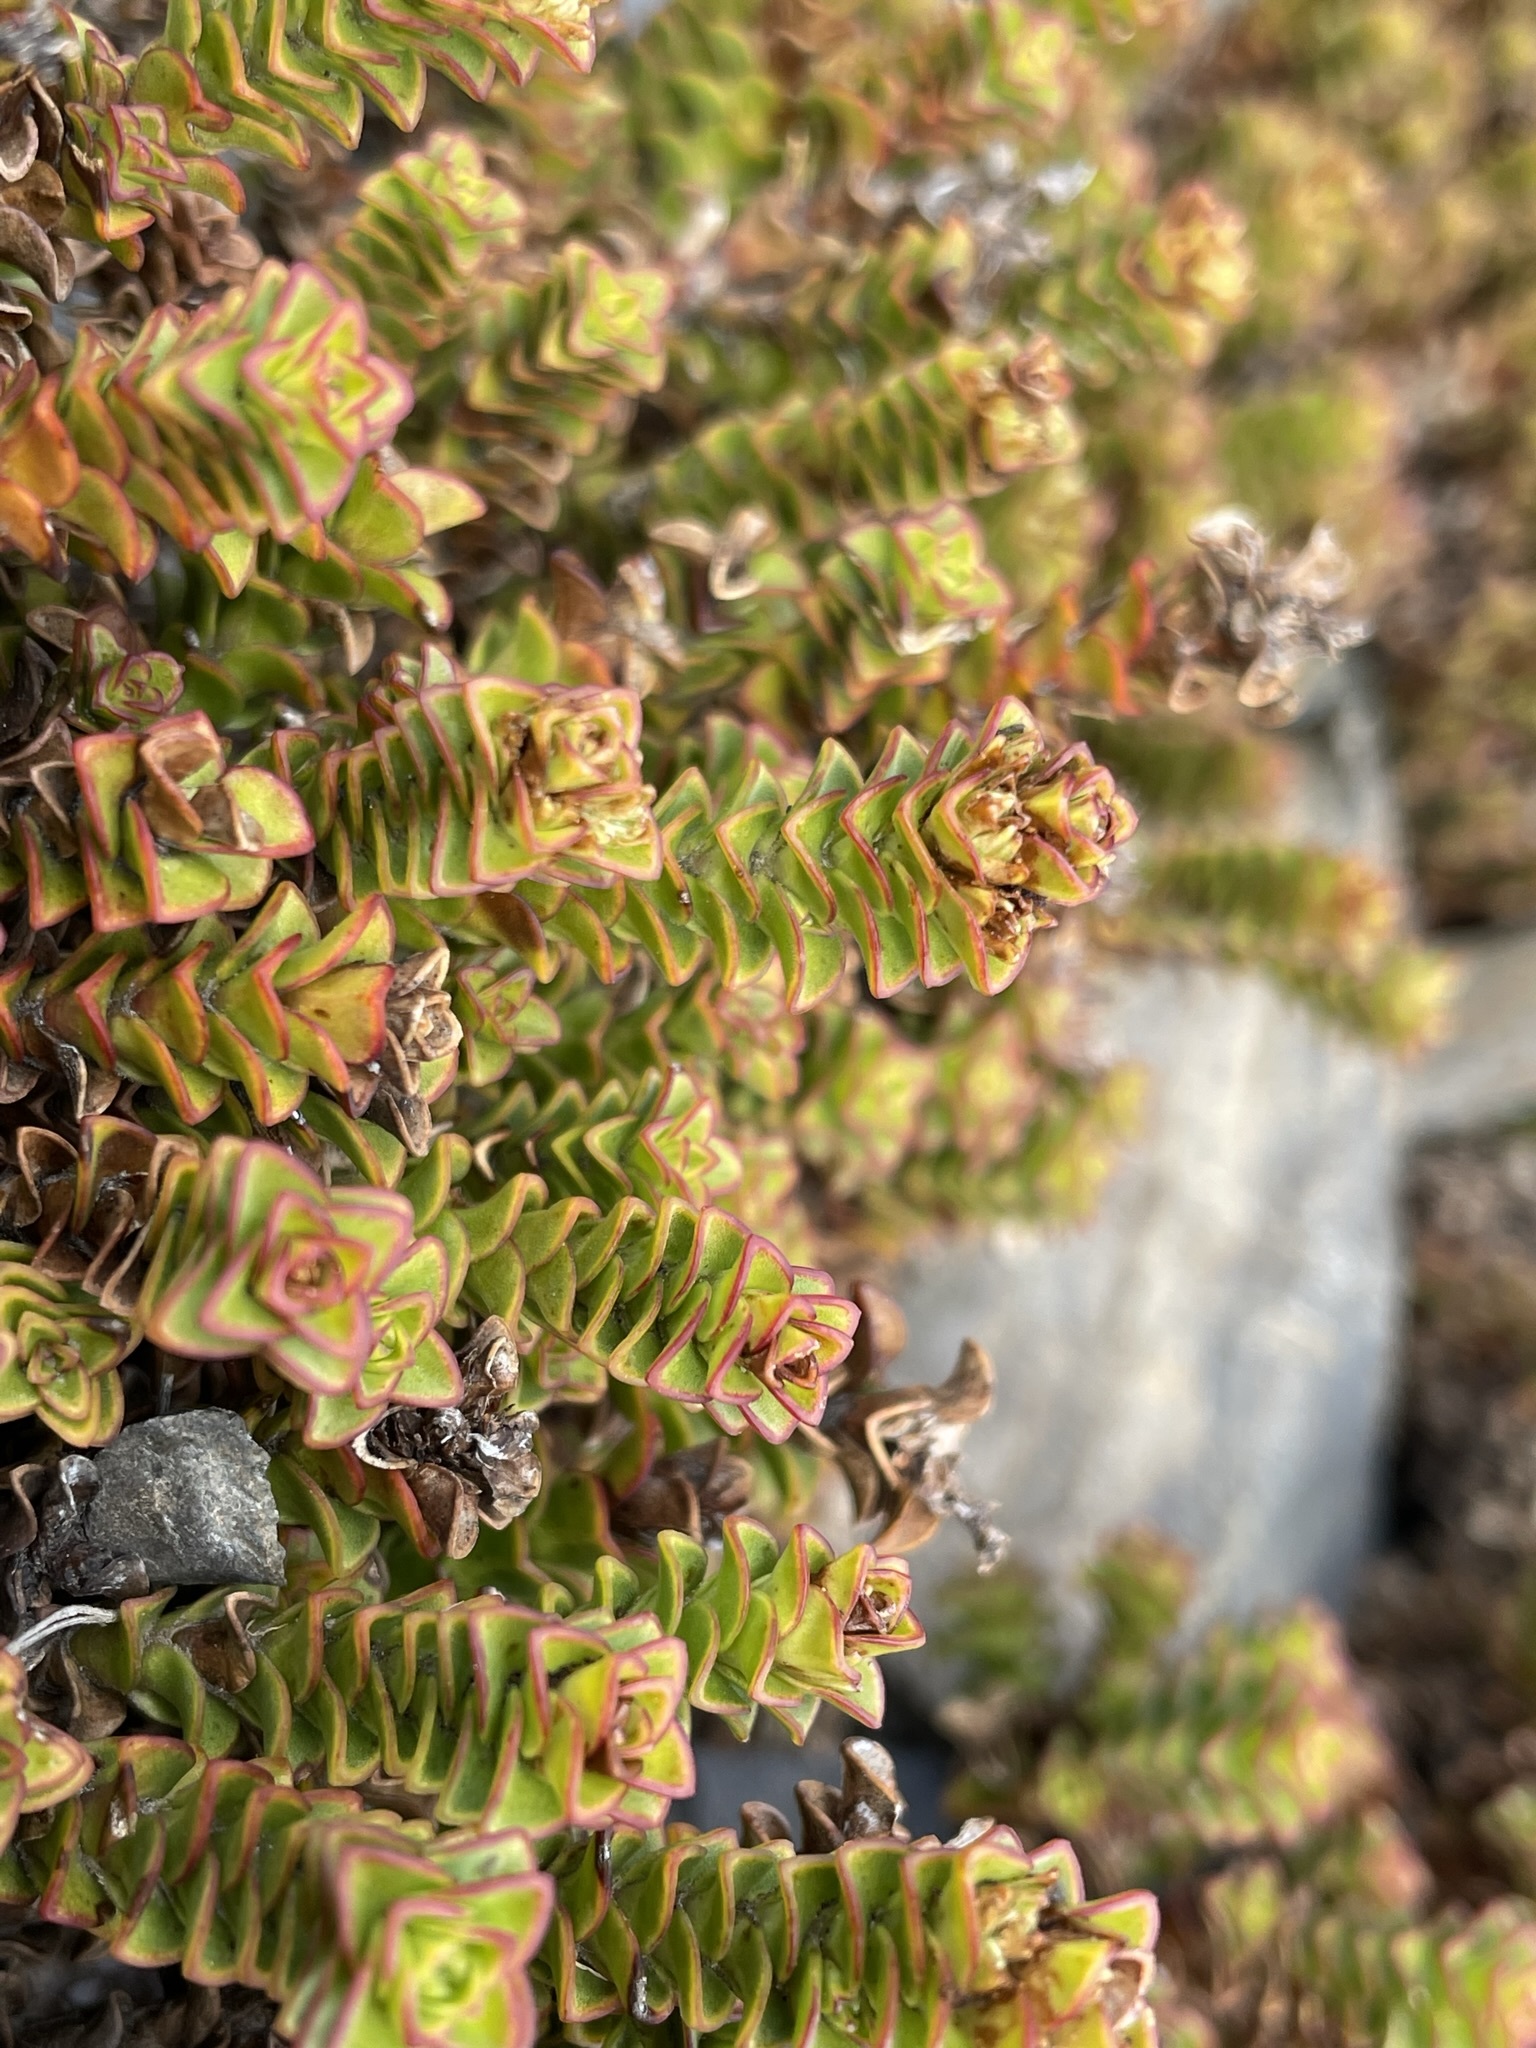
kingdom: Plantae
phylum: Tracheophyta
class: Magnoliopsida
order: Lamiales
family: Plantaginaceae
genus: Veronica
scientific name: Veronica epacridea
